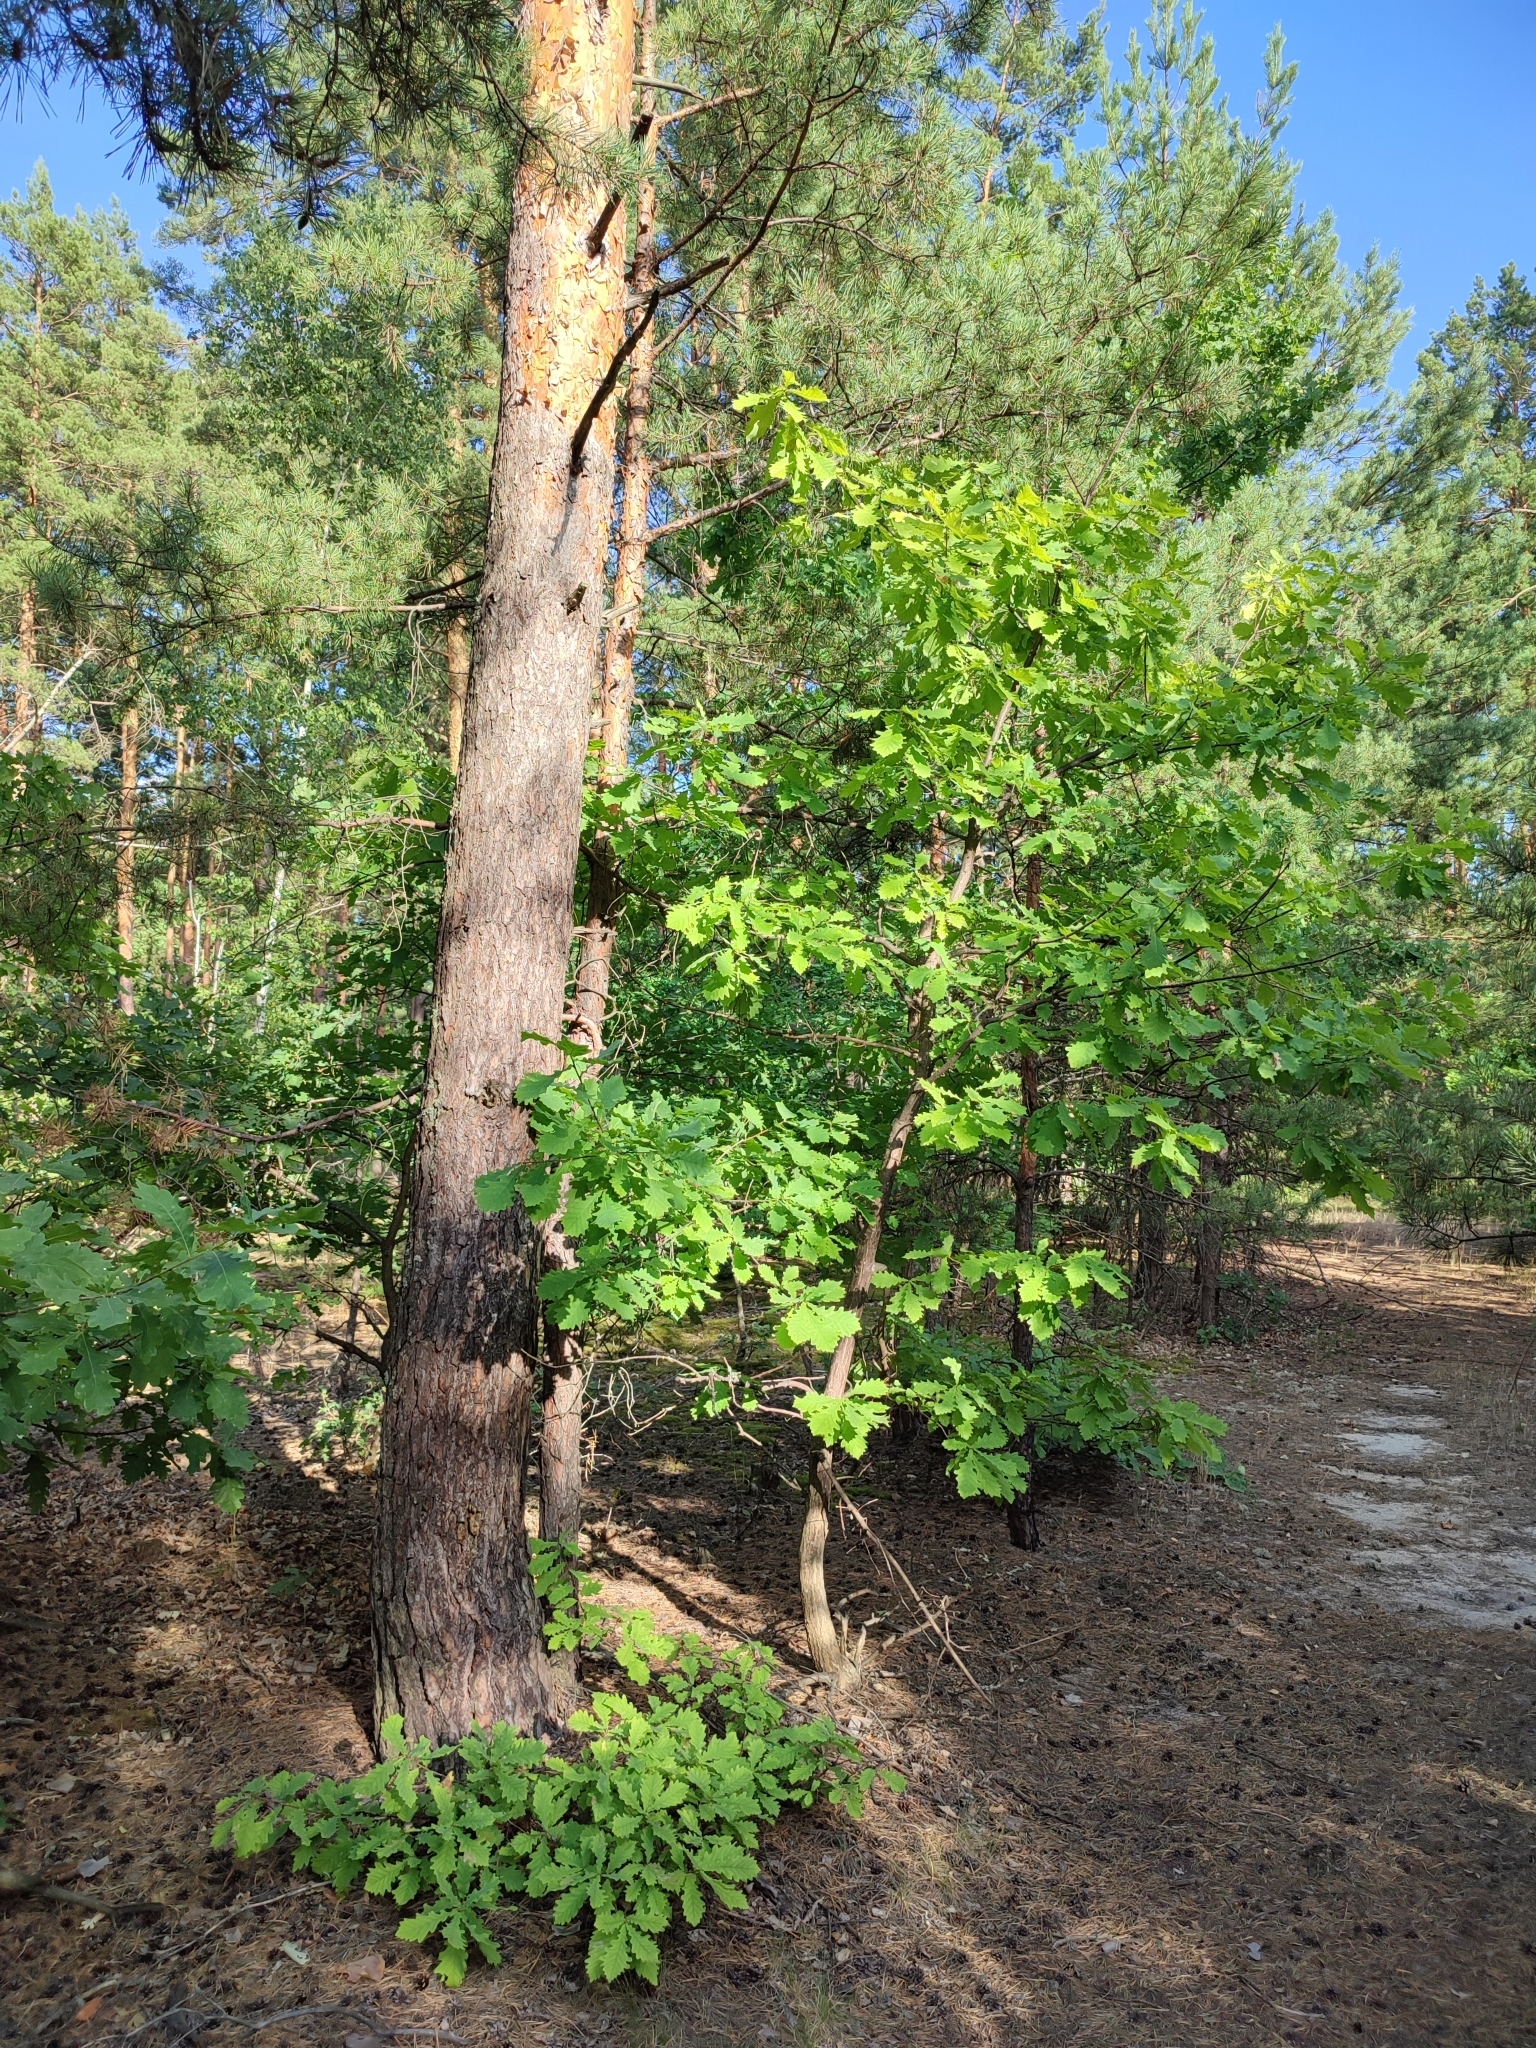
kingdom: Plantae
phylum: Tracheophyta
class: Magnoliopsida
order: Fagales
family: Fagaceae
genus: Quercus
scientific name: Quercus robur
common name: Pedunculate oak
